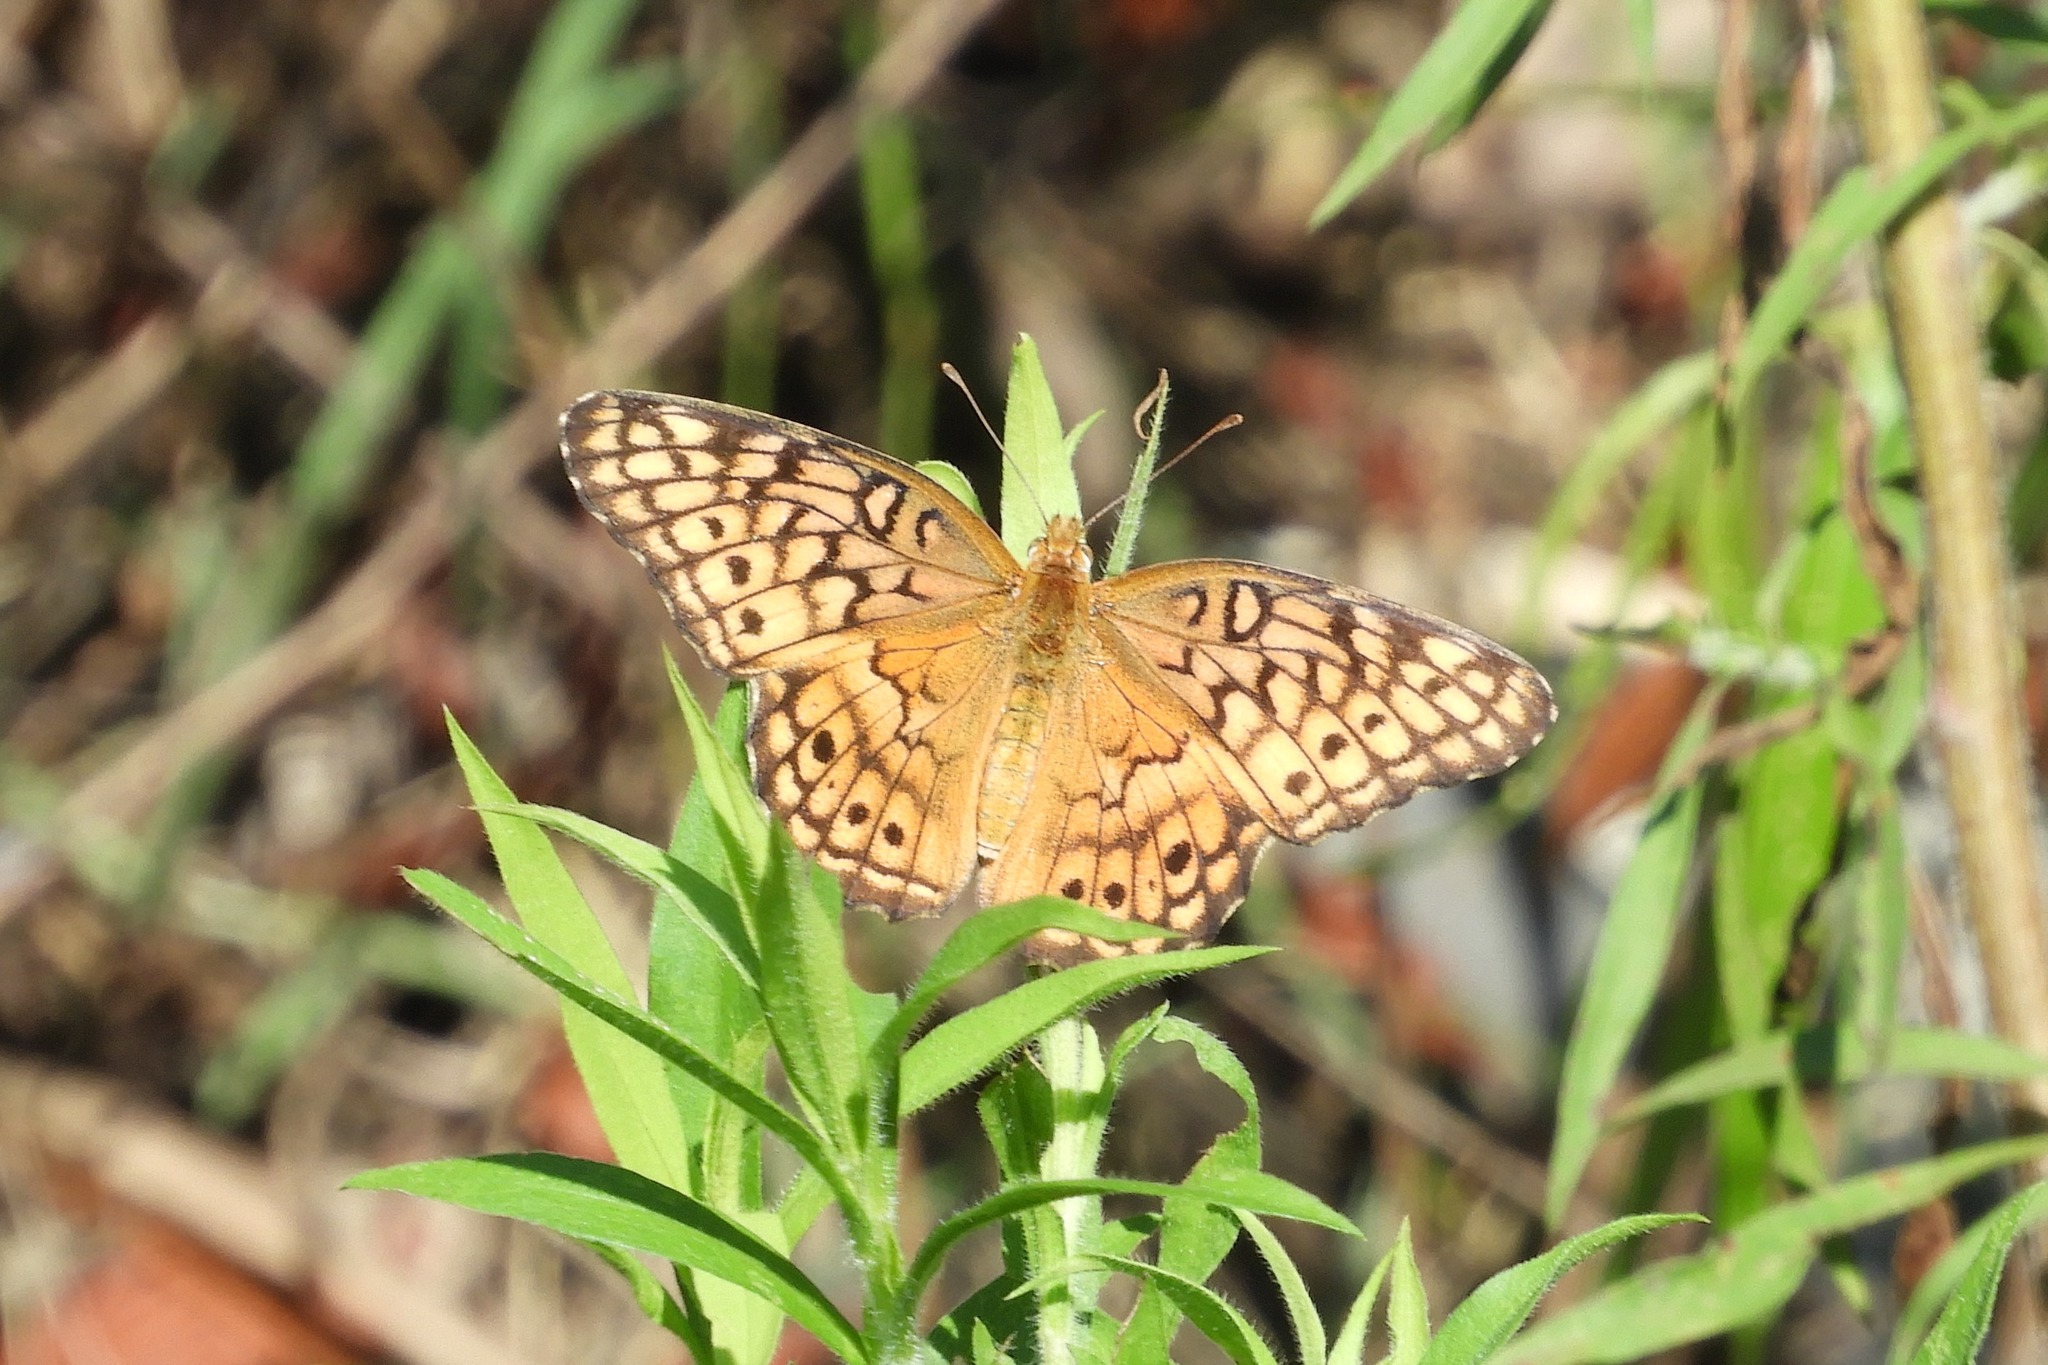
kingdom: Animalia
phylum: Arthropoda
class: Insecta
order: Lepidoptera
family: Nymphalidae
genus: Euptoieta
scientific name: Euptoieta claudia
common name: Variegated fritillary
